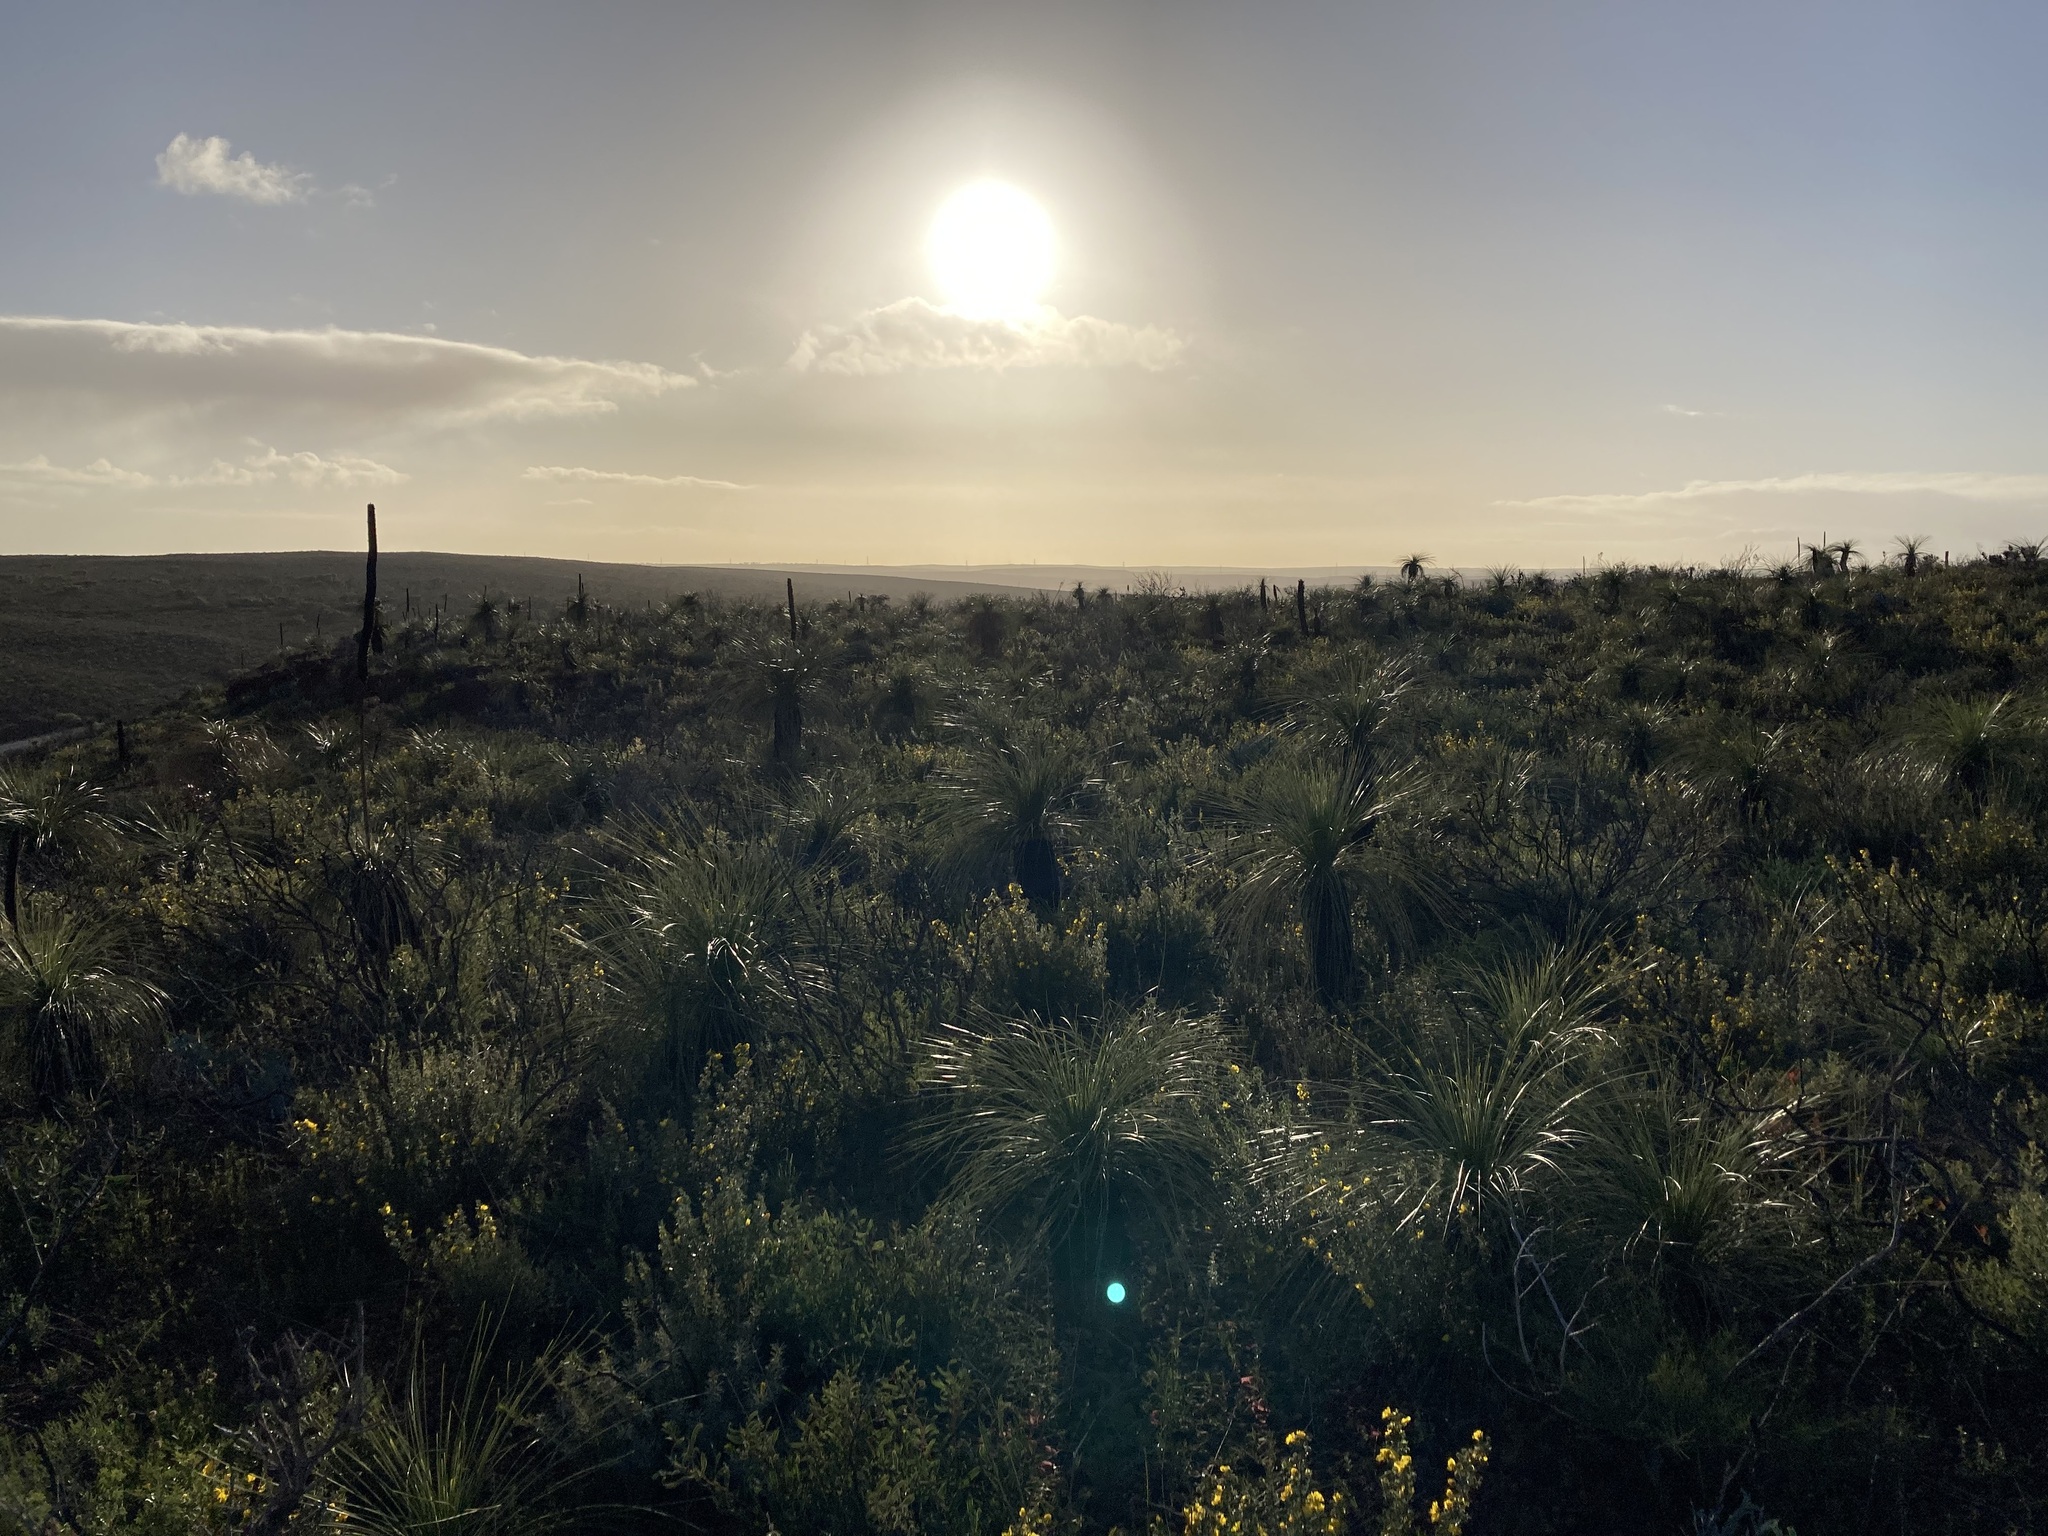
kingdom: Plantae
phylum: Tracheophyta
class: Liliopsida
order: Asparagales
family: Asphodelaceae
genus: Xanthorrhoea
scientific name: Xanthorrhoea drummondii
